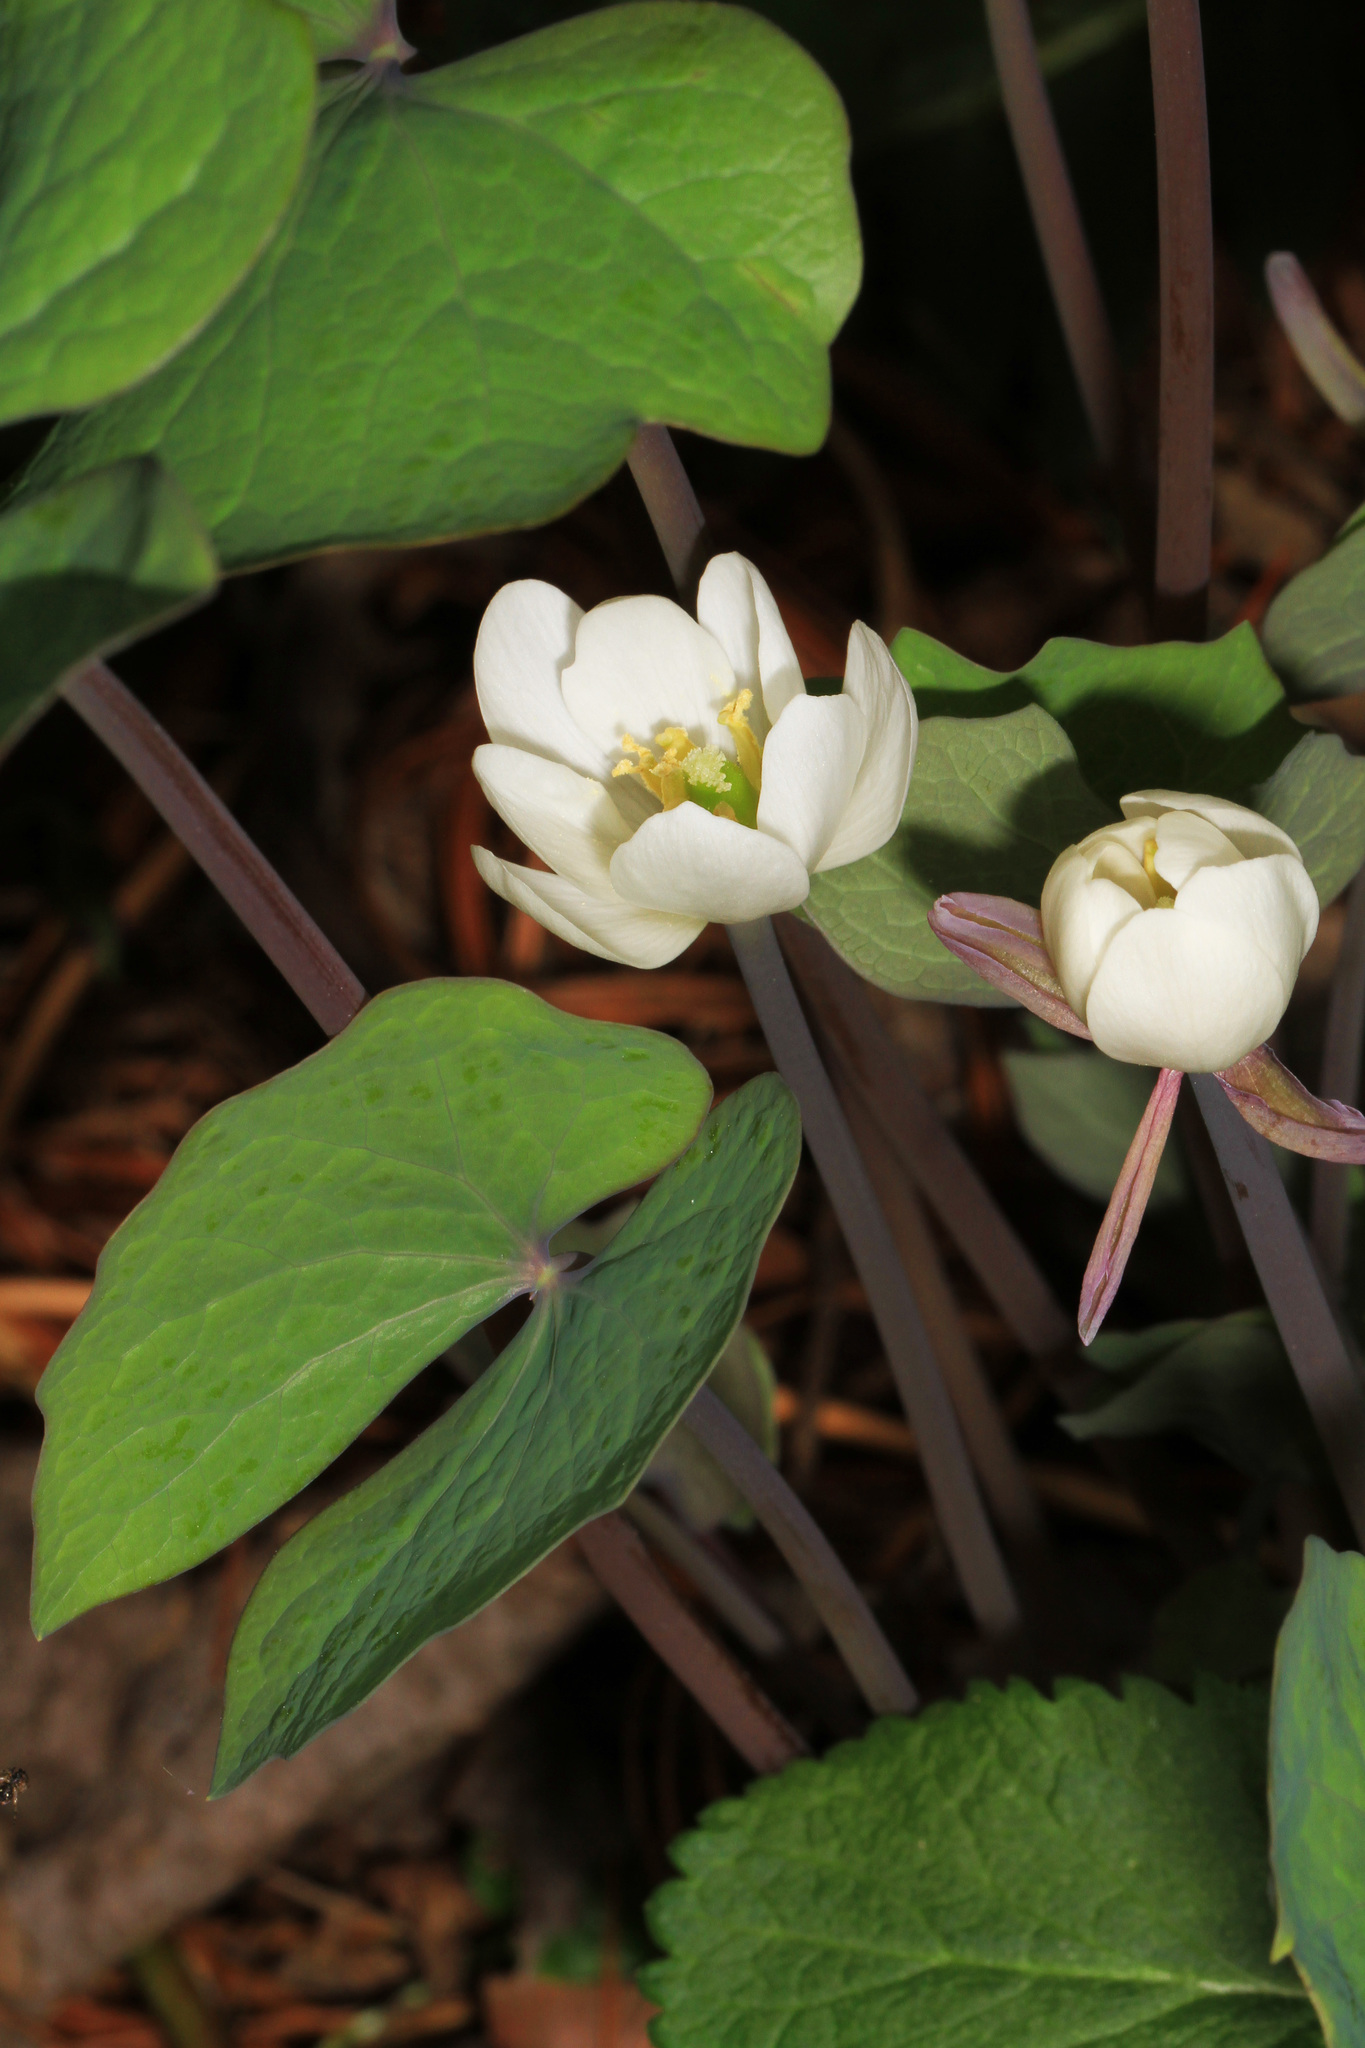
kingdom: Plantae
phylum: Tracheophyta
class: Magnoliopsida
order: Ranunculales
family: Berberidaceae
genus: Jeffersonia
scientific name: Jeffersonia diphylla
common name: Rheumatism-root
